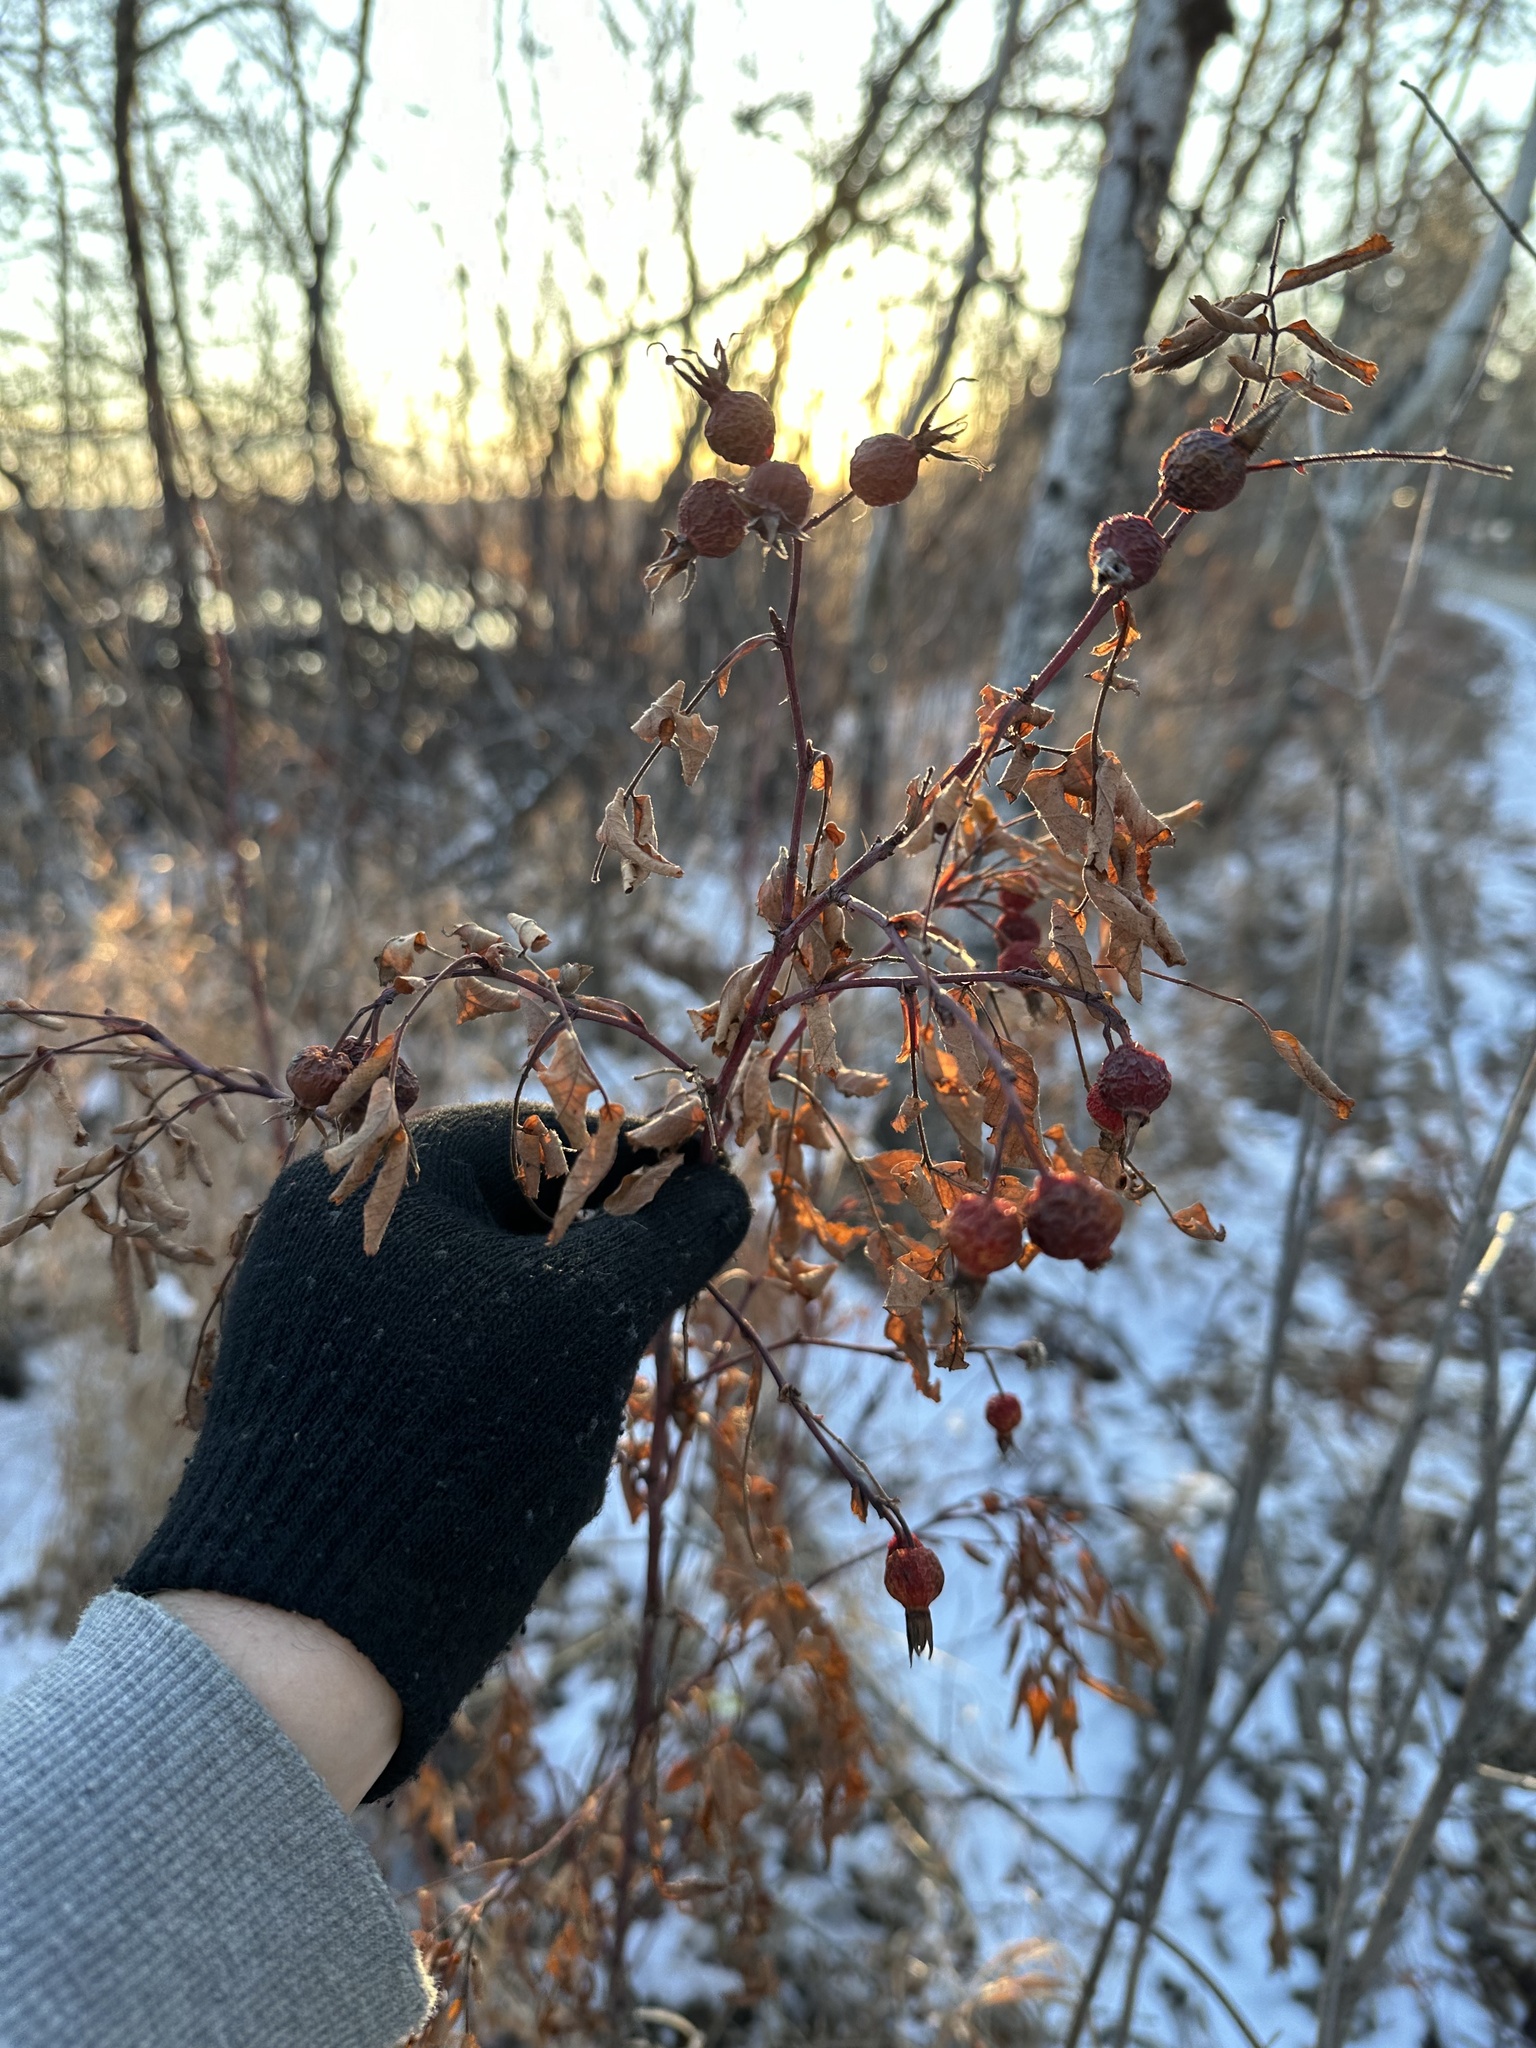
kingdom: Plantae
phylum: Tracheophyta
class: Magnoliopsida
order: Rosales
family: Rosaceae
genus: Rosa
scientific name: Rosa woodsii
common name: Woods's rose
